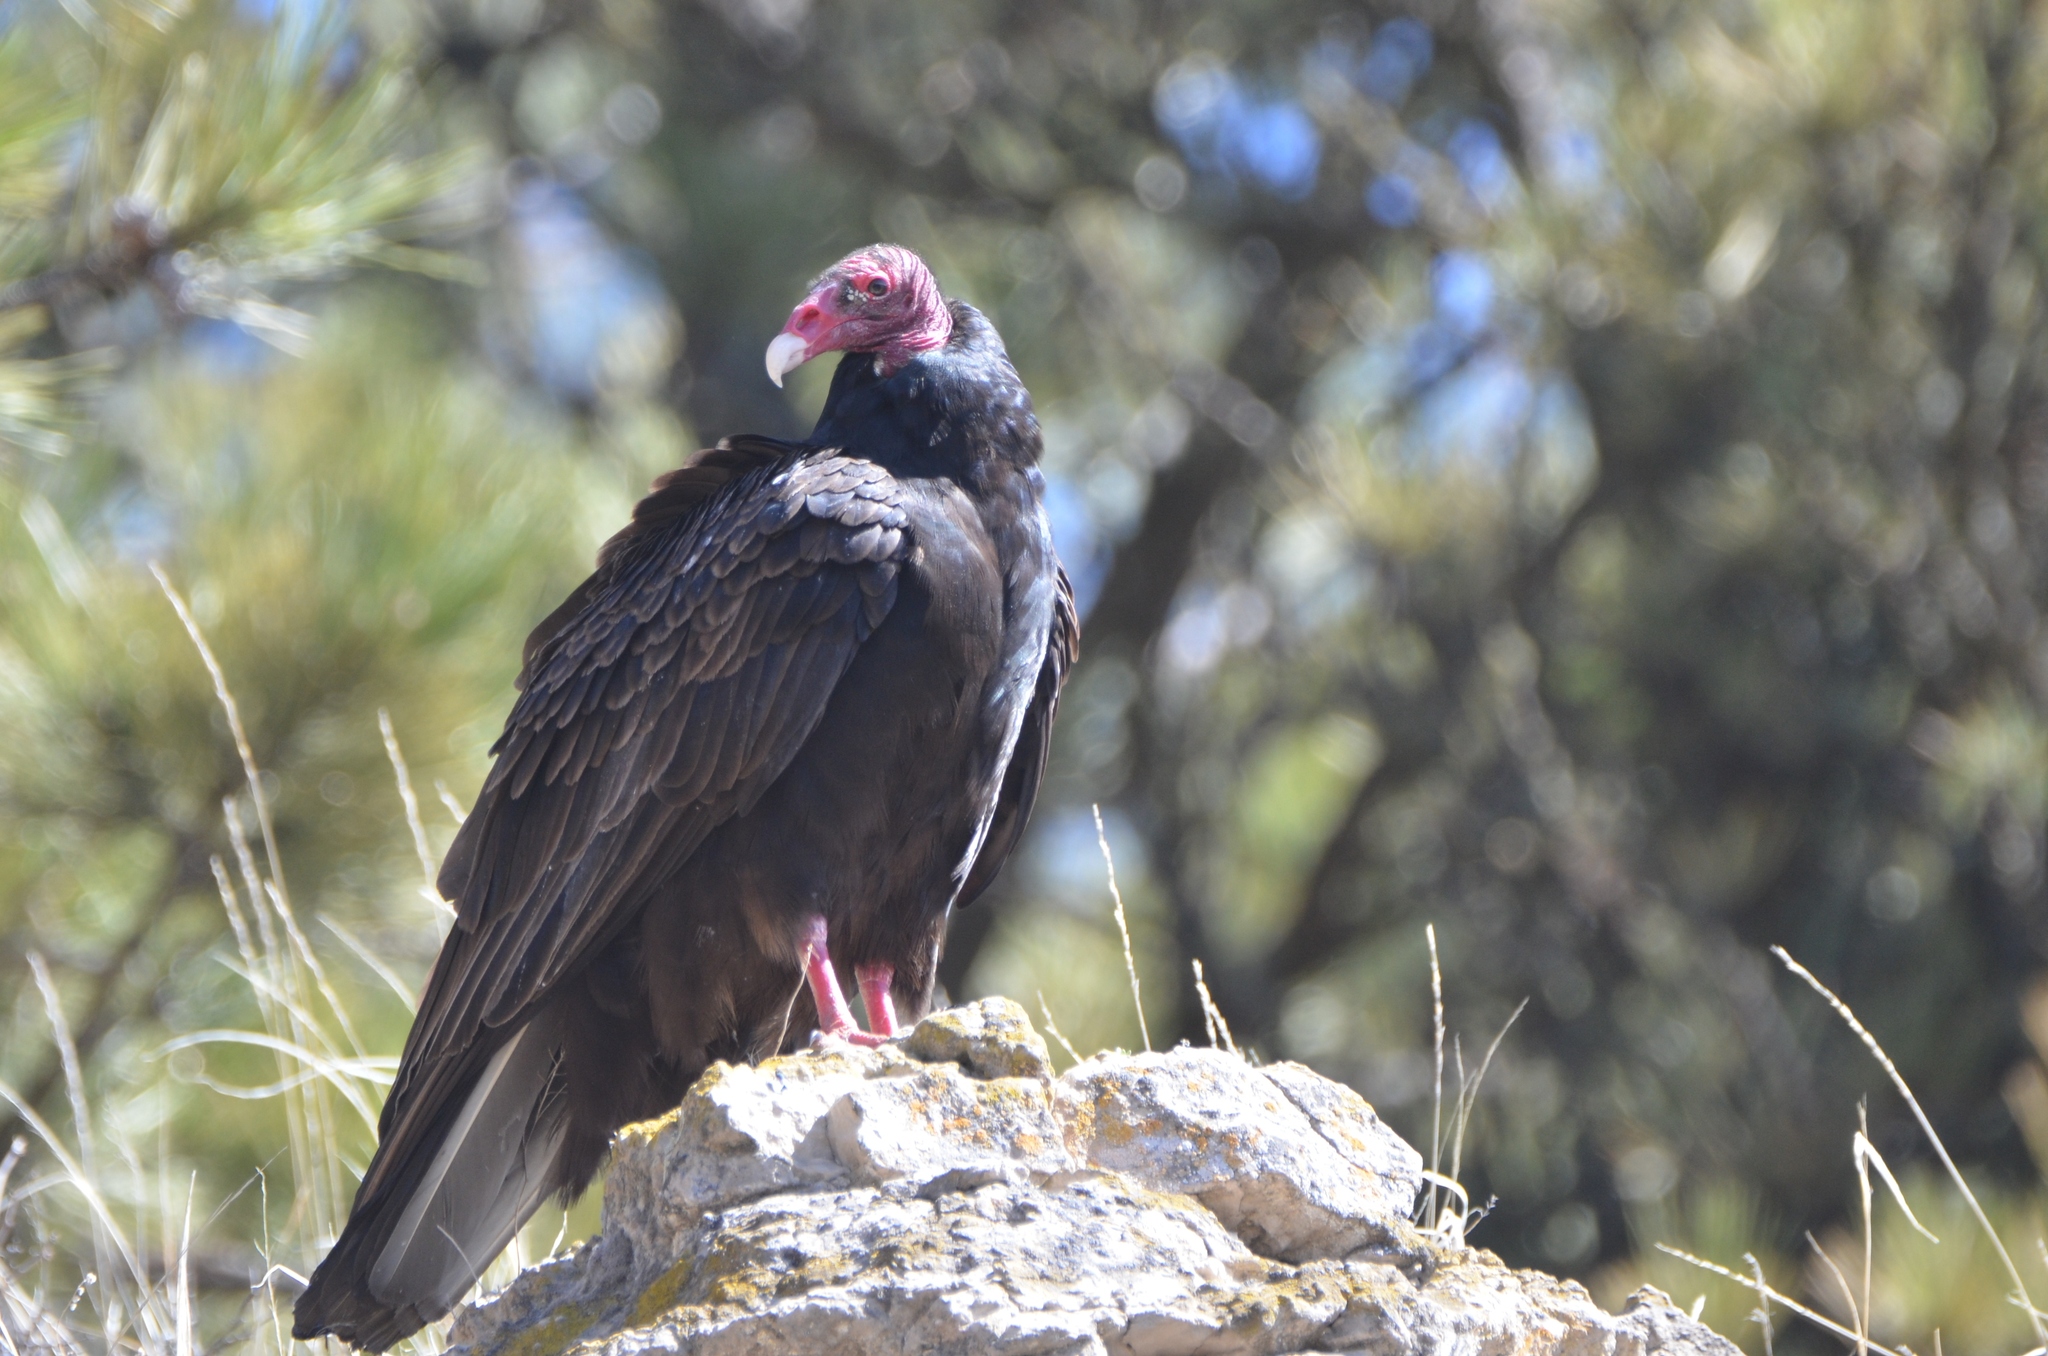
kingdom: Animalia
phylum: Chordata
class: Aves
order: Accipitriformes
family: Cathartidae
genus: Cathartes
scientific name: Cathartes aura
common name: Turkey vulture
